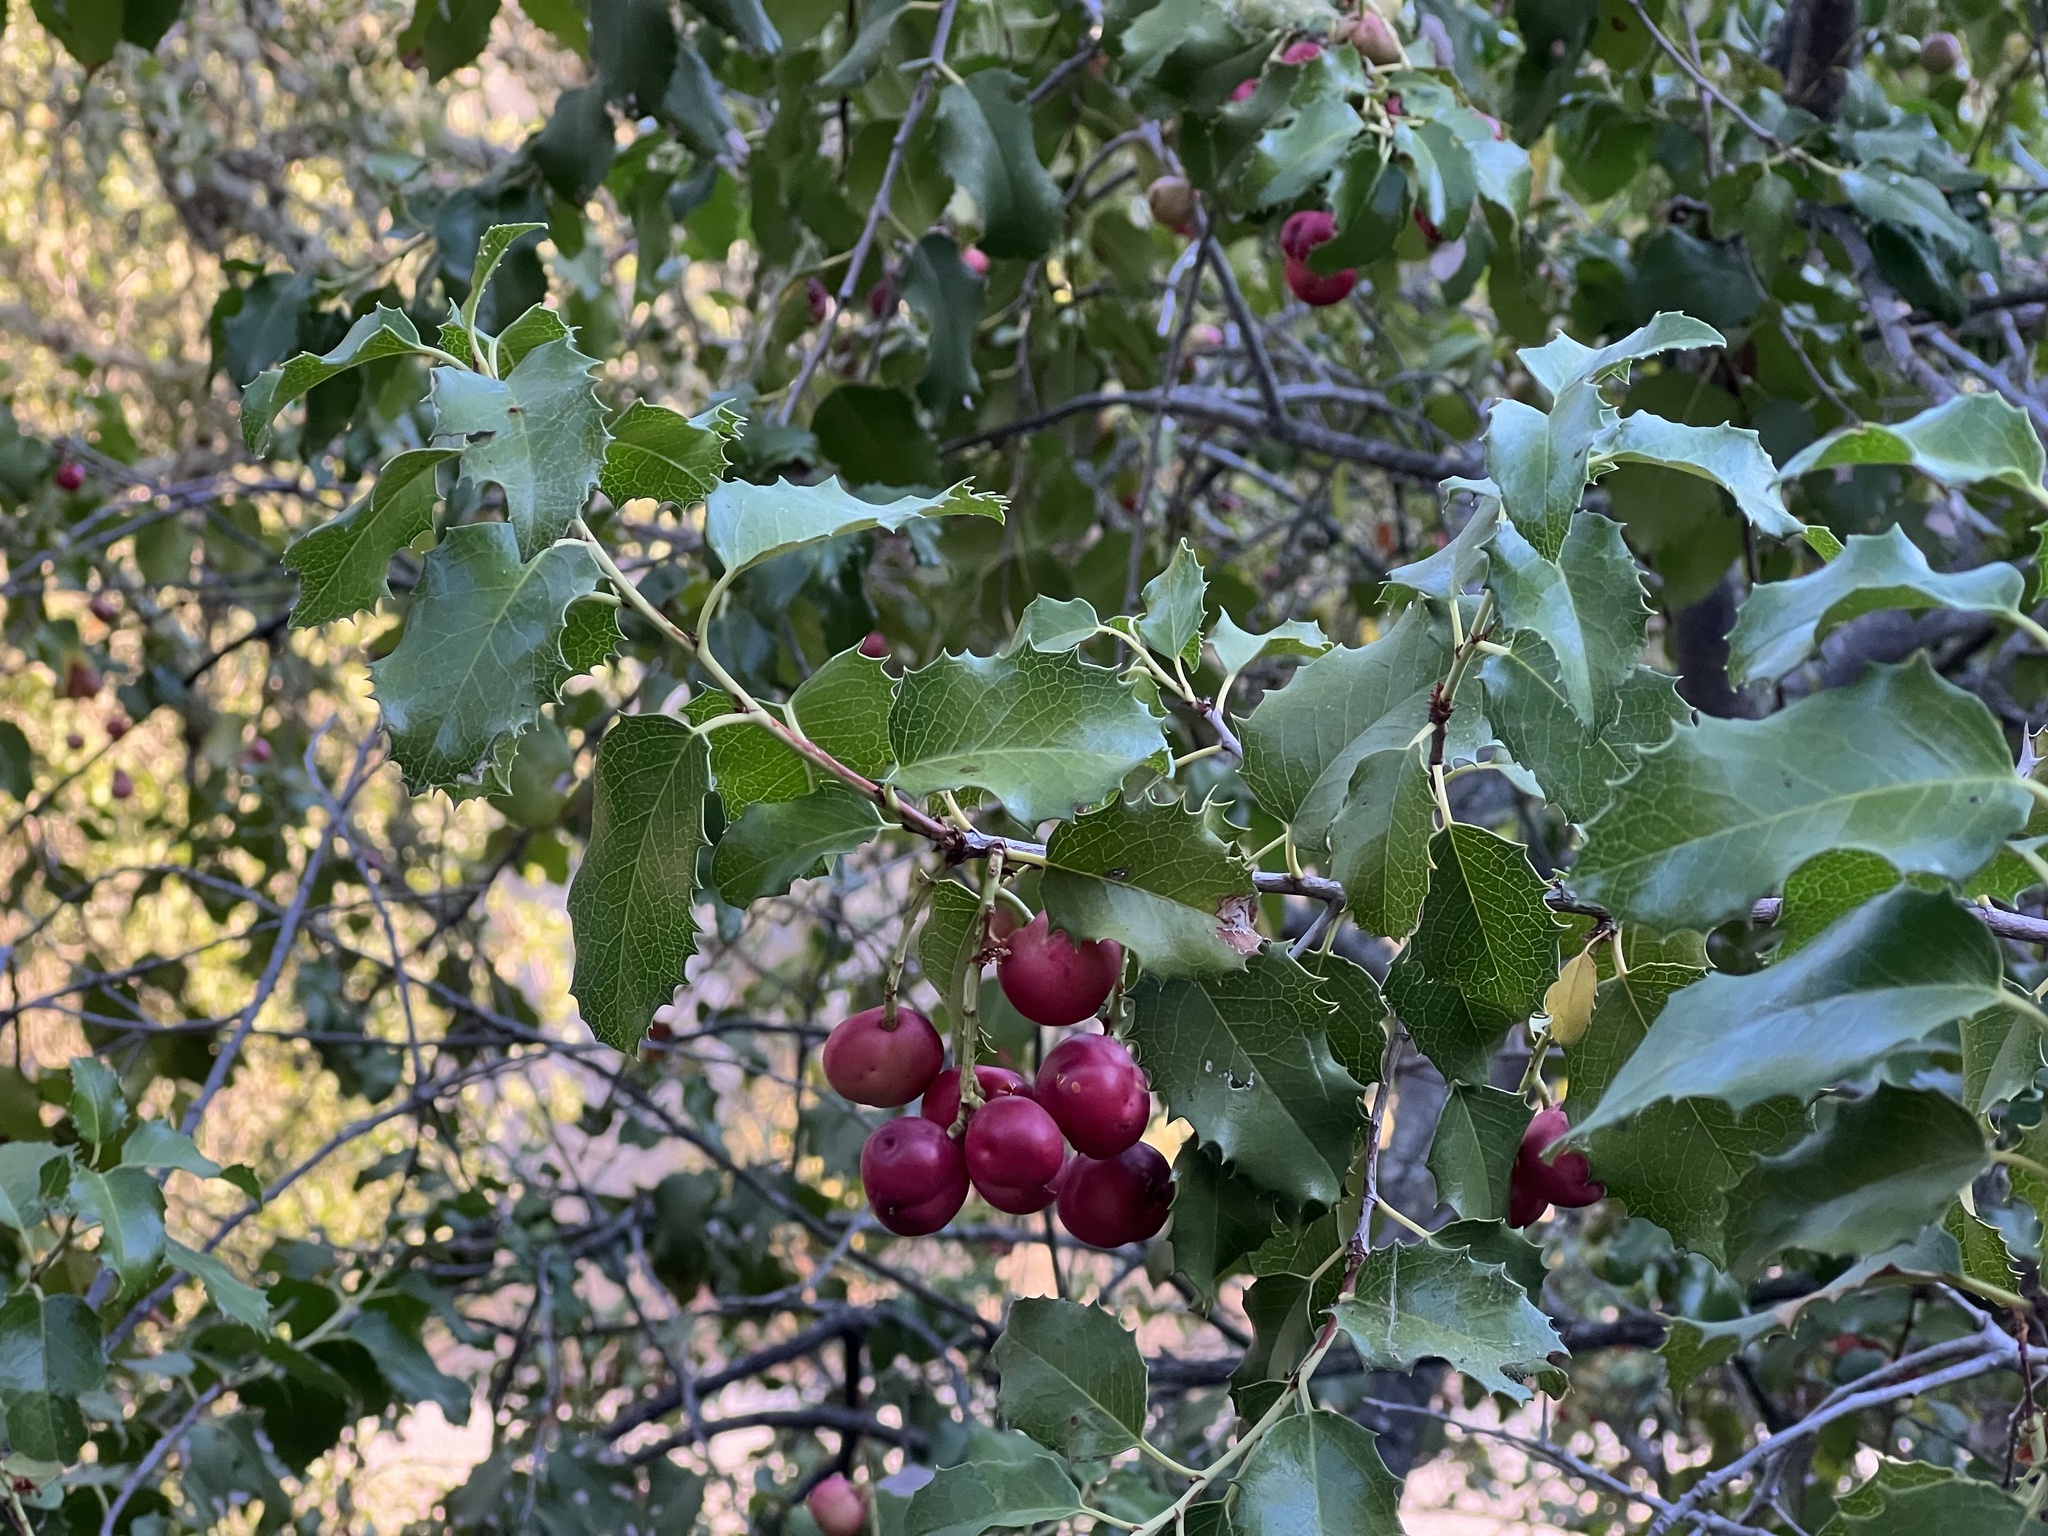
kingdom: Plantae
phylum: Tracheophyta
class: Magnoliopsida
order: Rosales
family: Rosaceae
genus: Prunus
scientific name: Prunus ilicifolia
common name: Hollyleaf cherry
